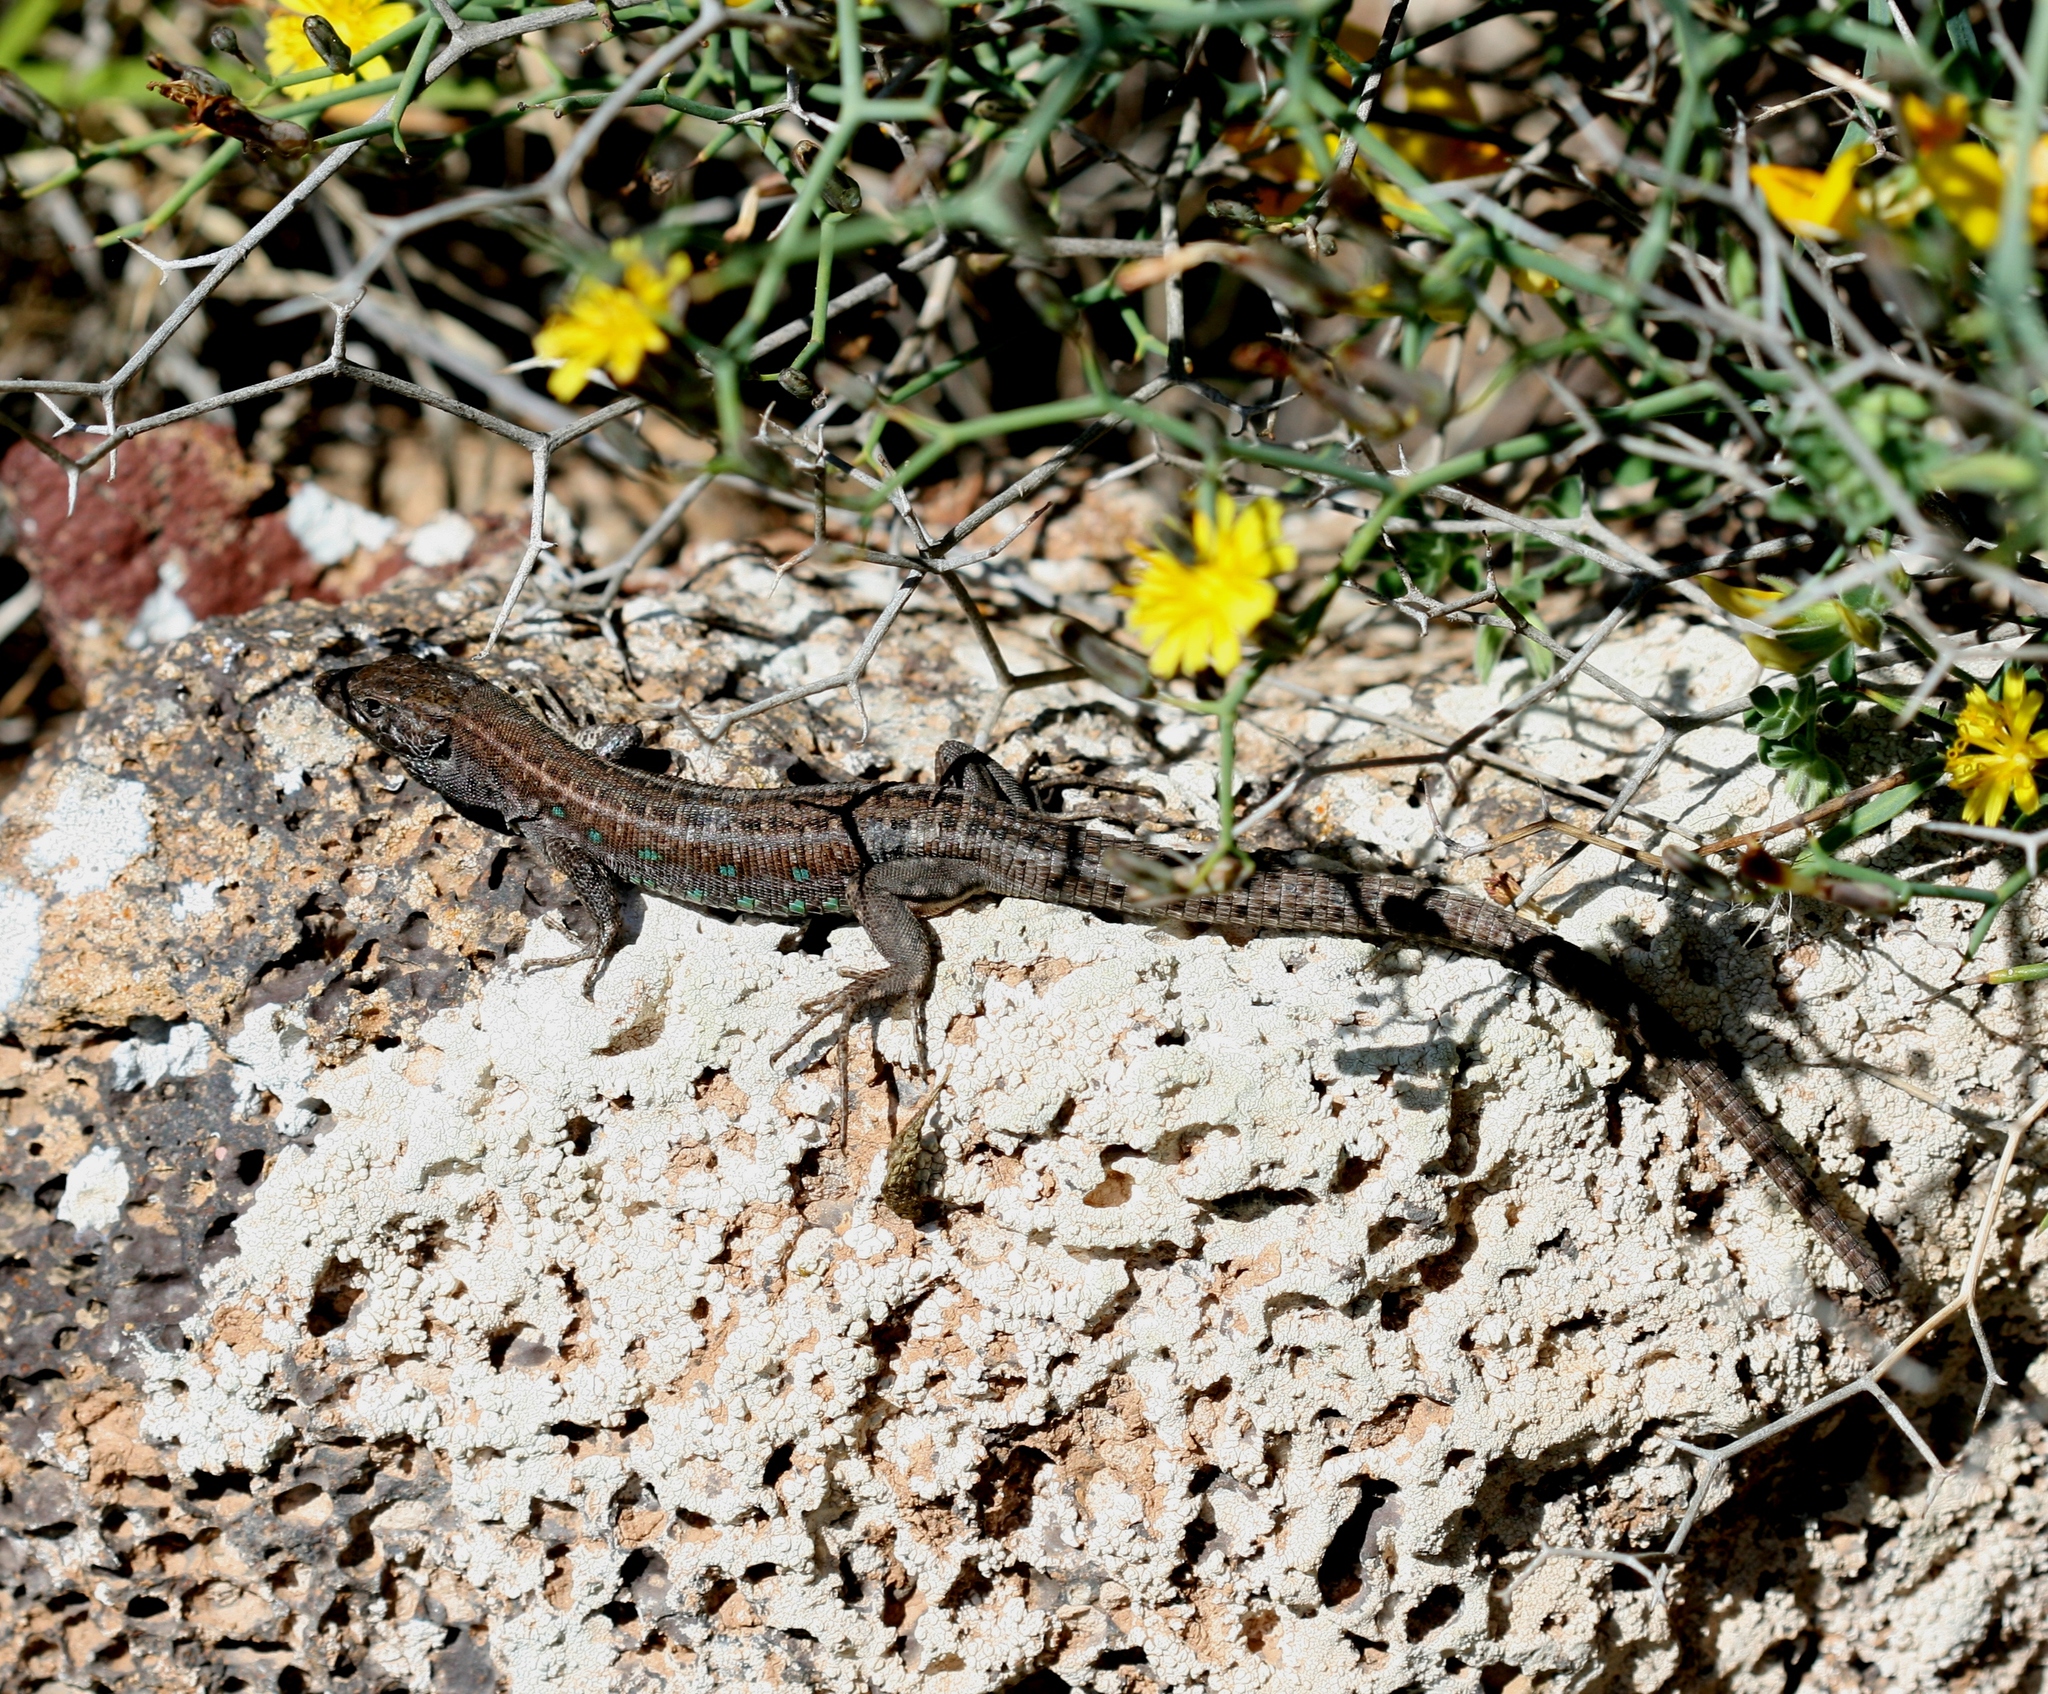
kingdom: Animalia
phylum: Chordata
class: Squamata
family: Lacertidae
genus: Gallotia
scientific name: Gallotia atlantica
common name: Atlantic lizard
